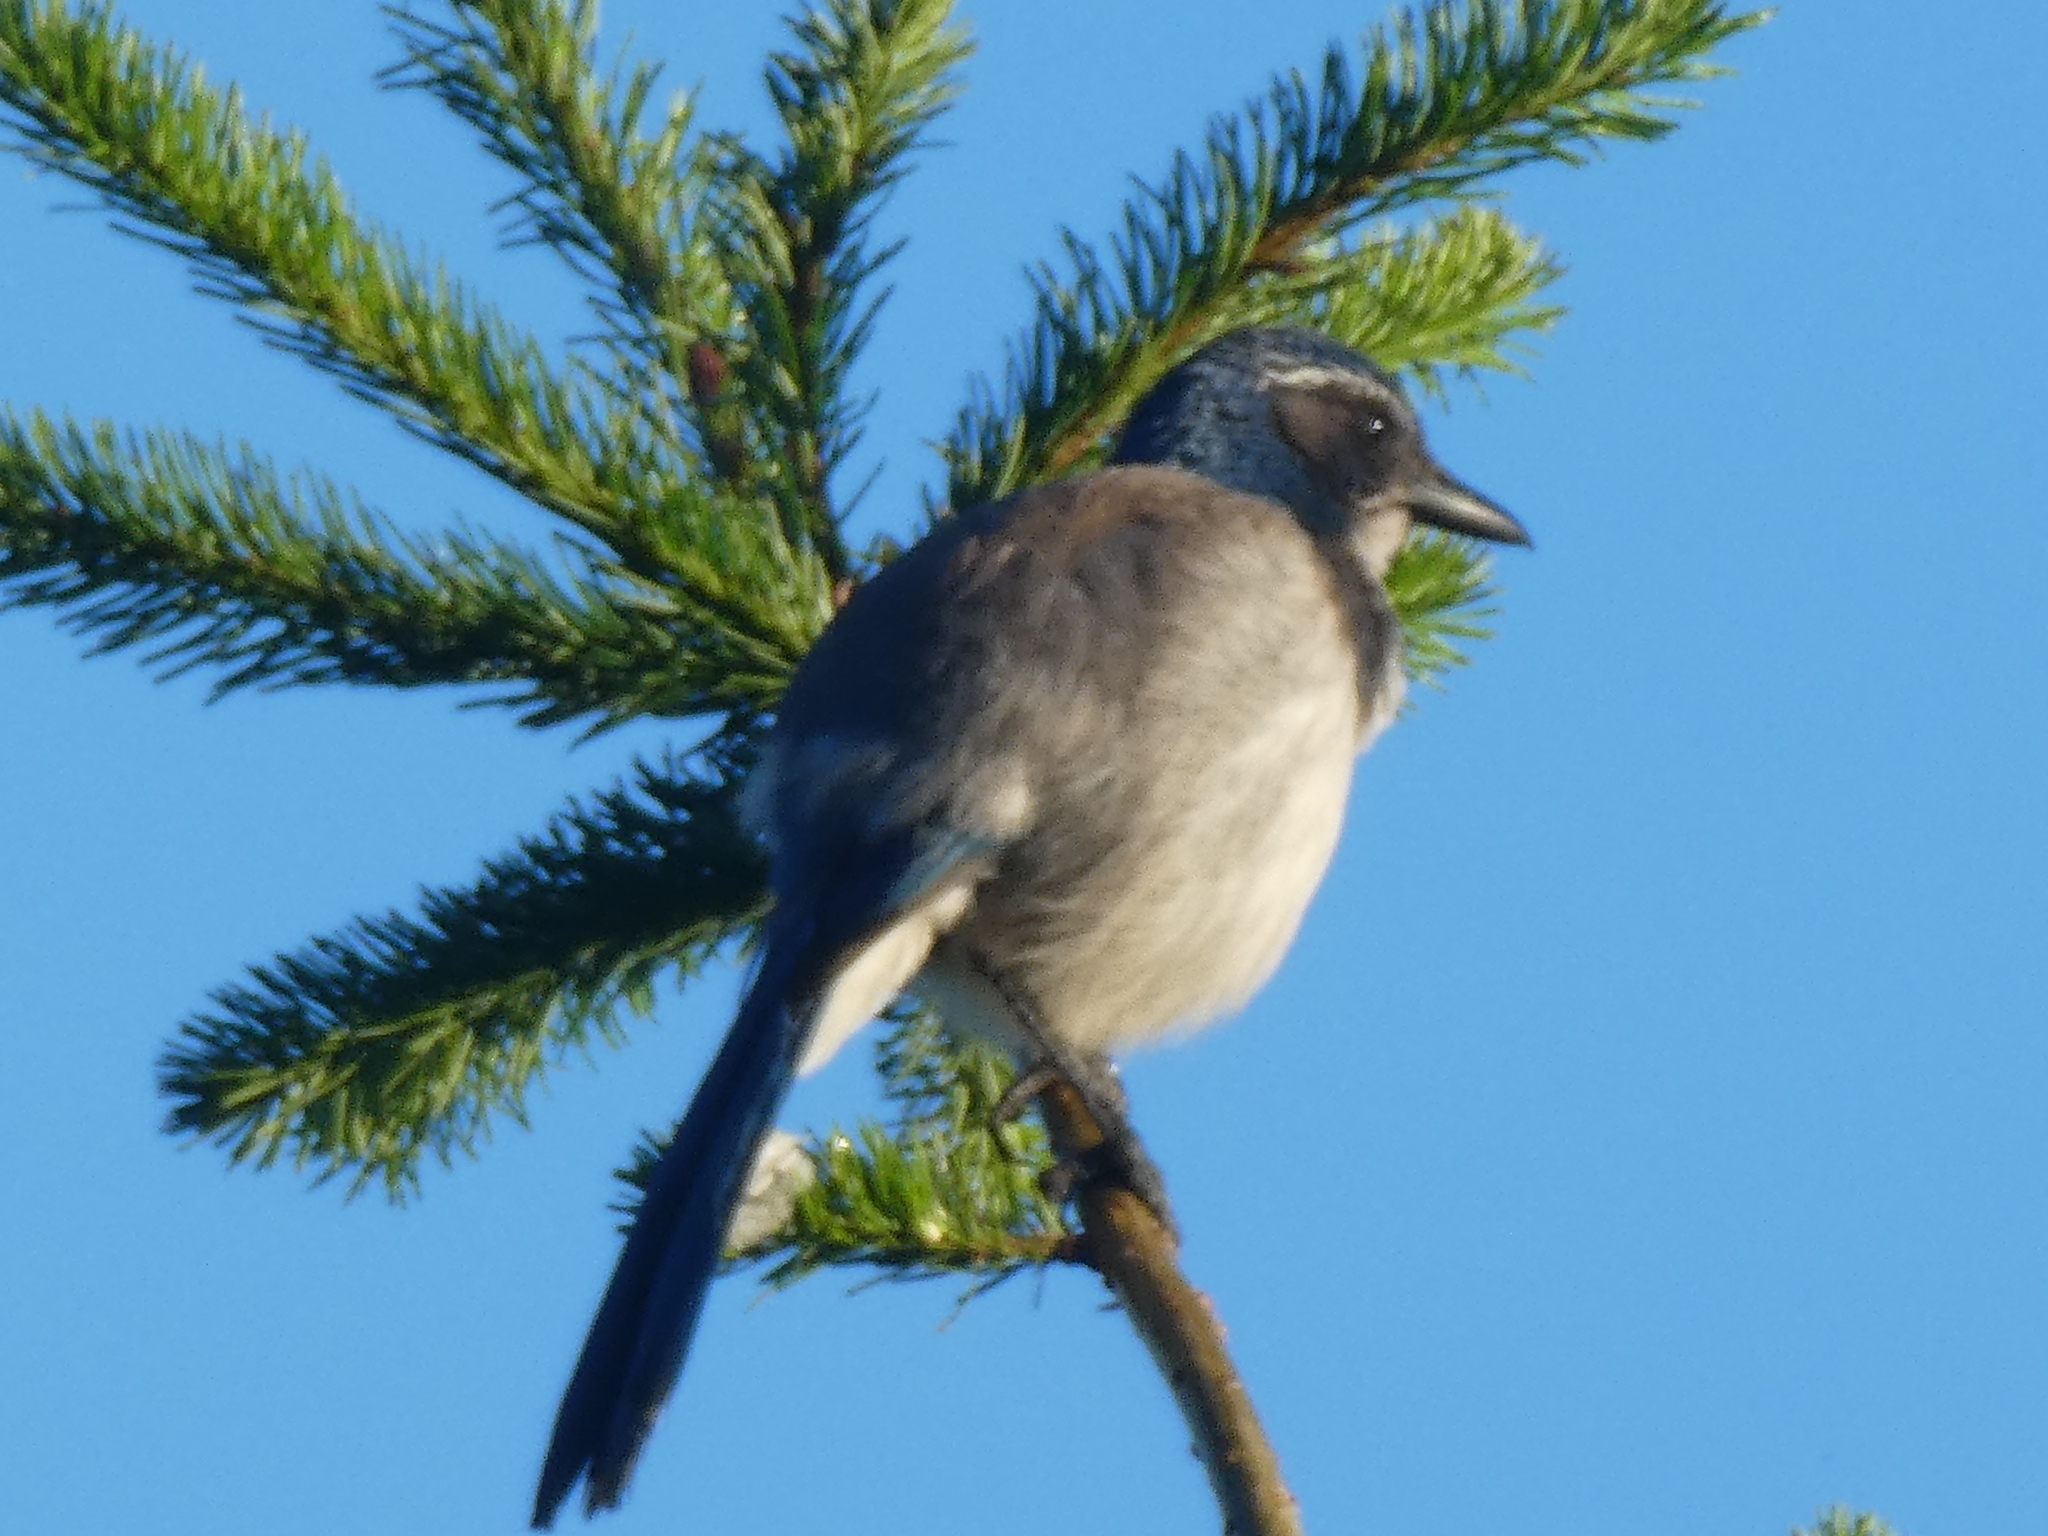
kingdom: Animalia
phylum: Chordata
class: Aves
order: Passeriformes
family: Corvidae
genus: Aphelocoma
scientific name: Aphelocoma californica
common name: California scrub-jay
